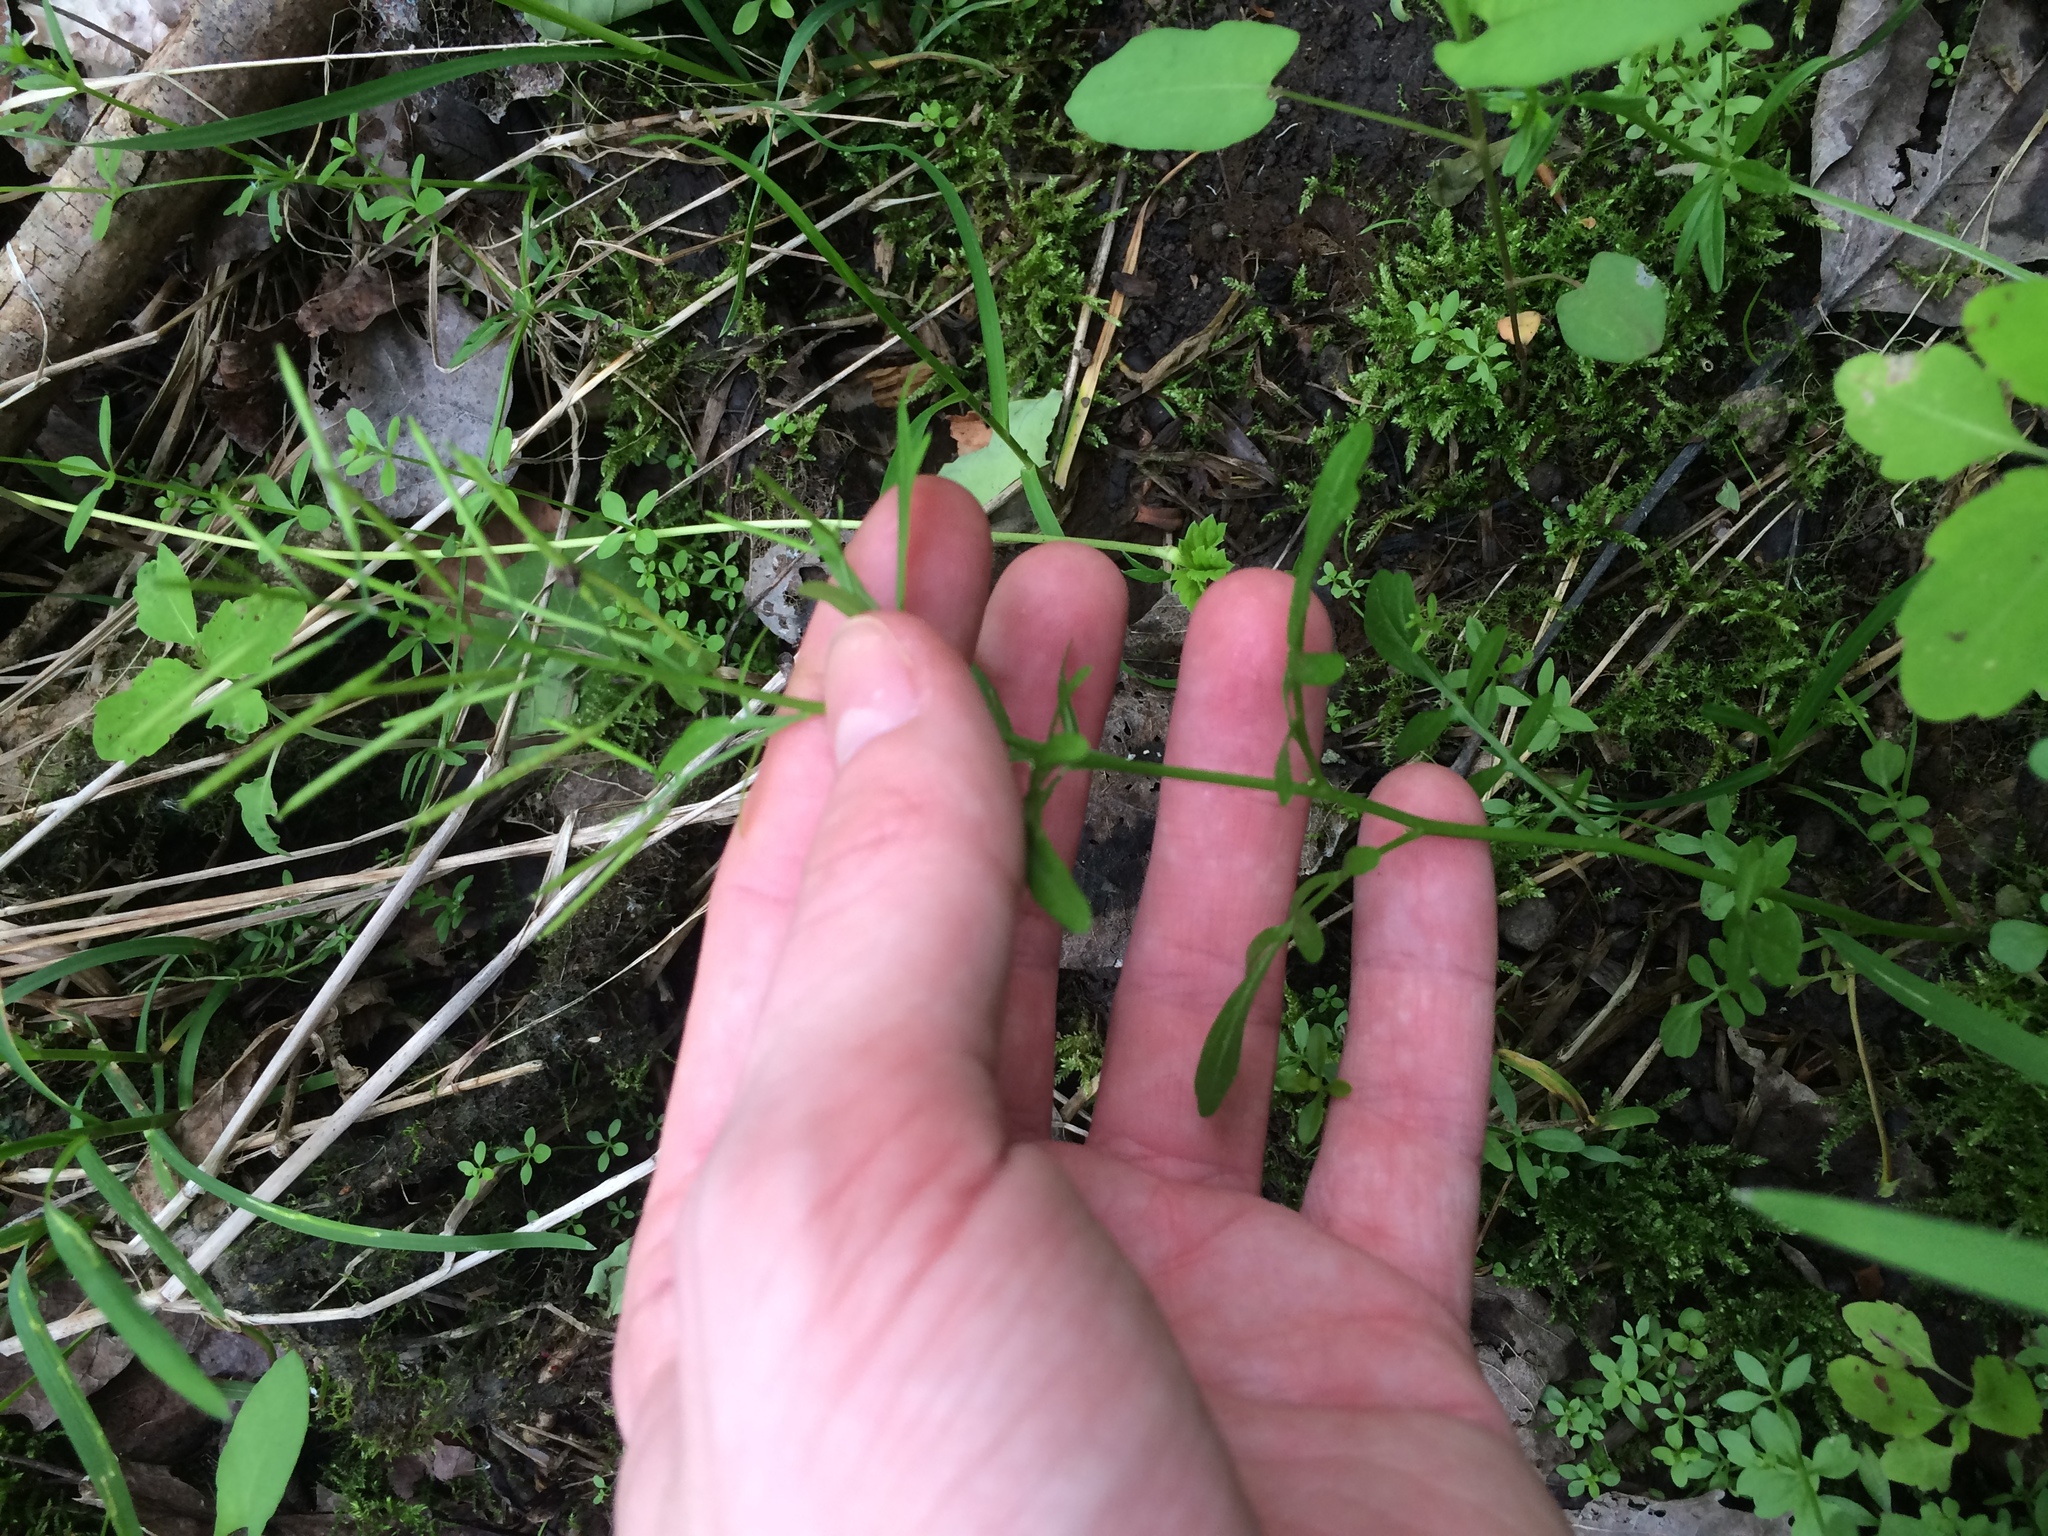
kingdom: Plantae
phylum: Tracheophyta
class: Magnoliopsida
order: Brassicales
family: Brassicaceae
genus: Cardamine
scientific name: Cardamine pensylvanica
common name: Pennsylvania bittercress
